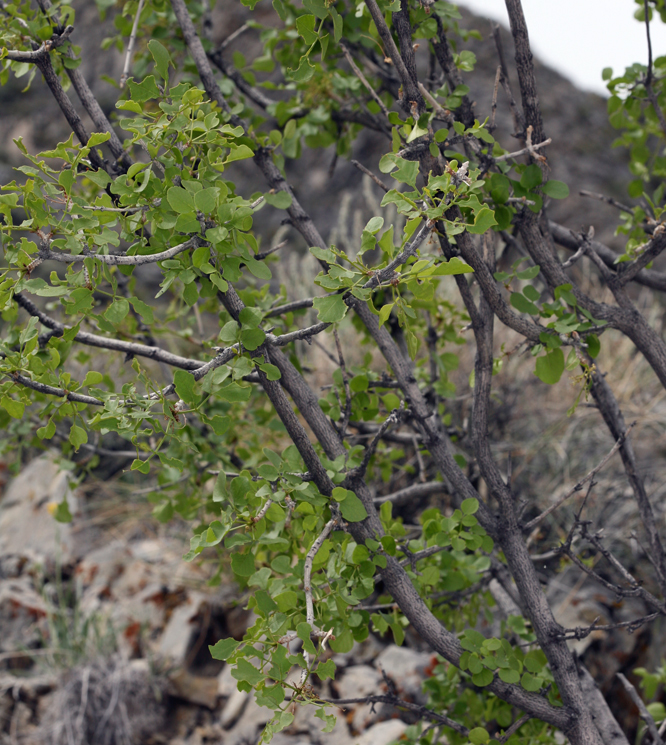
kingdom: Plantae
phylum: Tracheophyta
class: Magnoliopsida
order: Lamiales
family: Oleaceae
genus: Fraxinus
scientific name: Fraxinus anomala
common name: Utah ash
